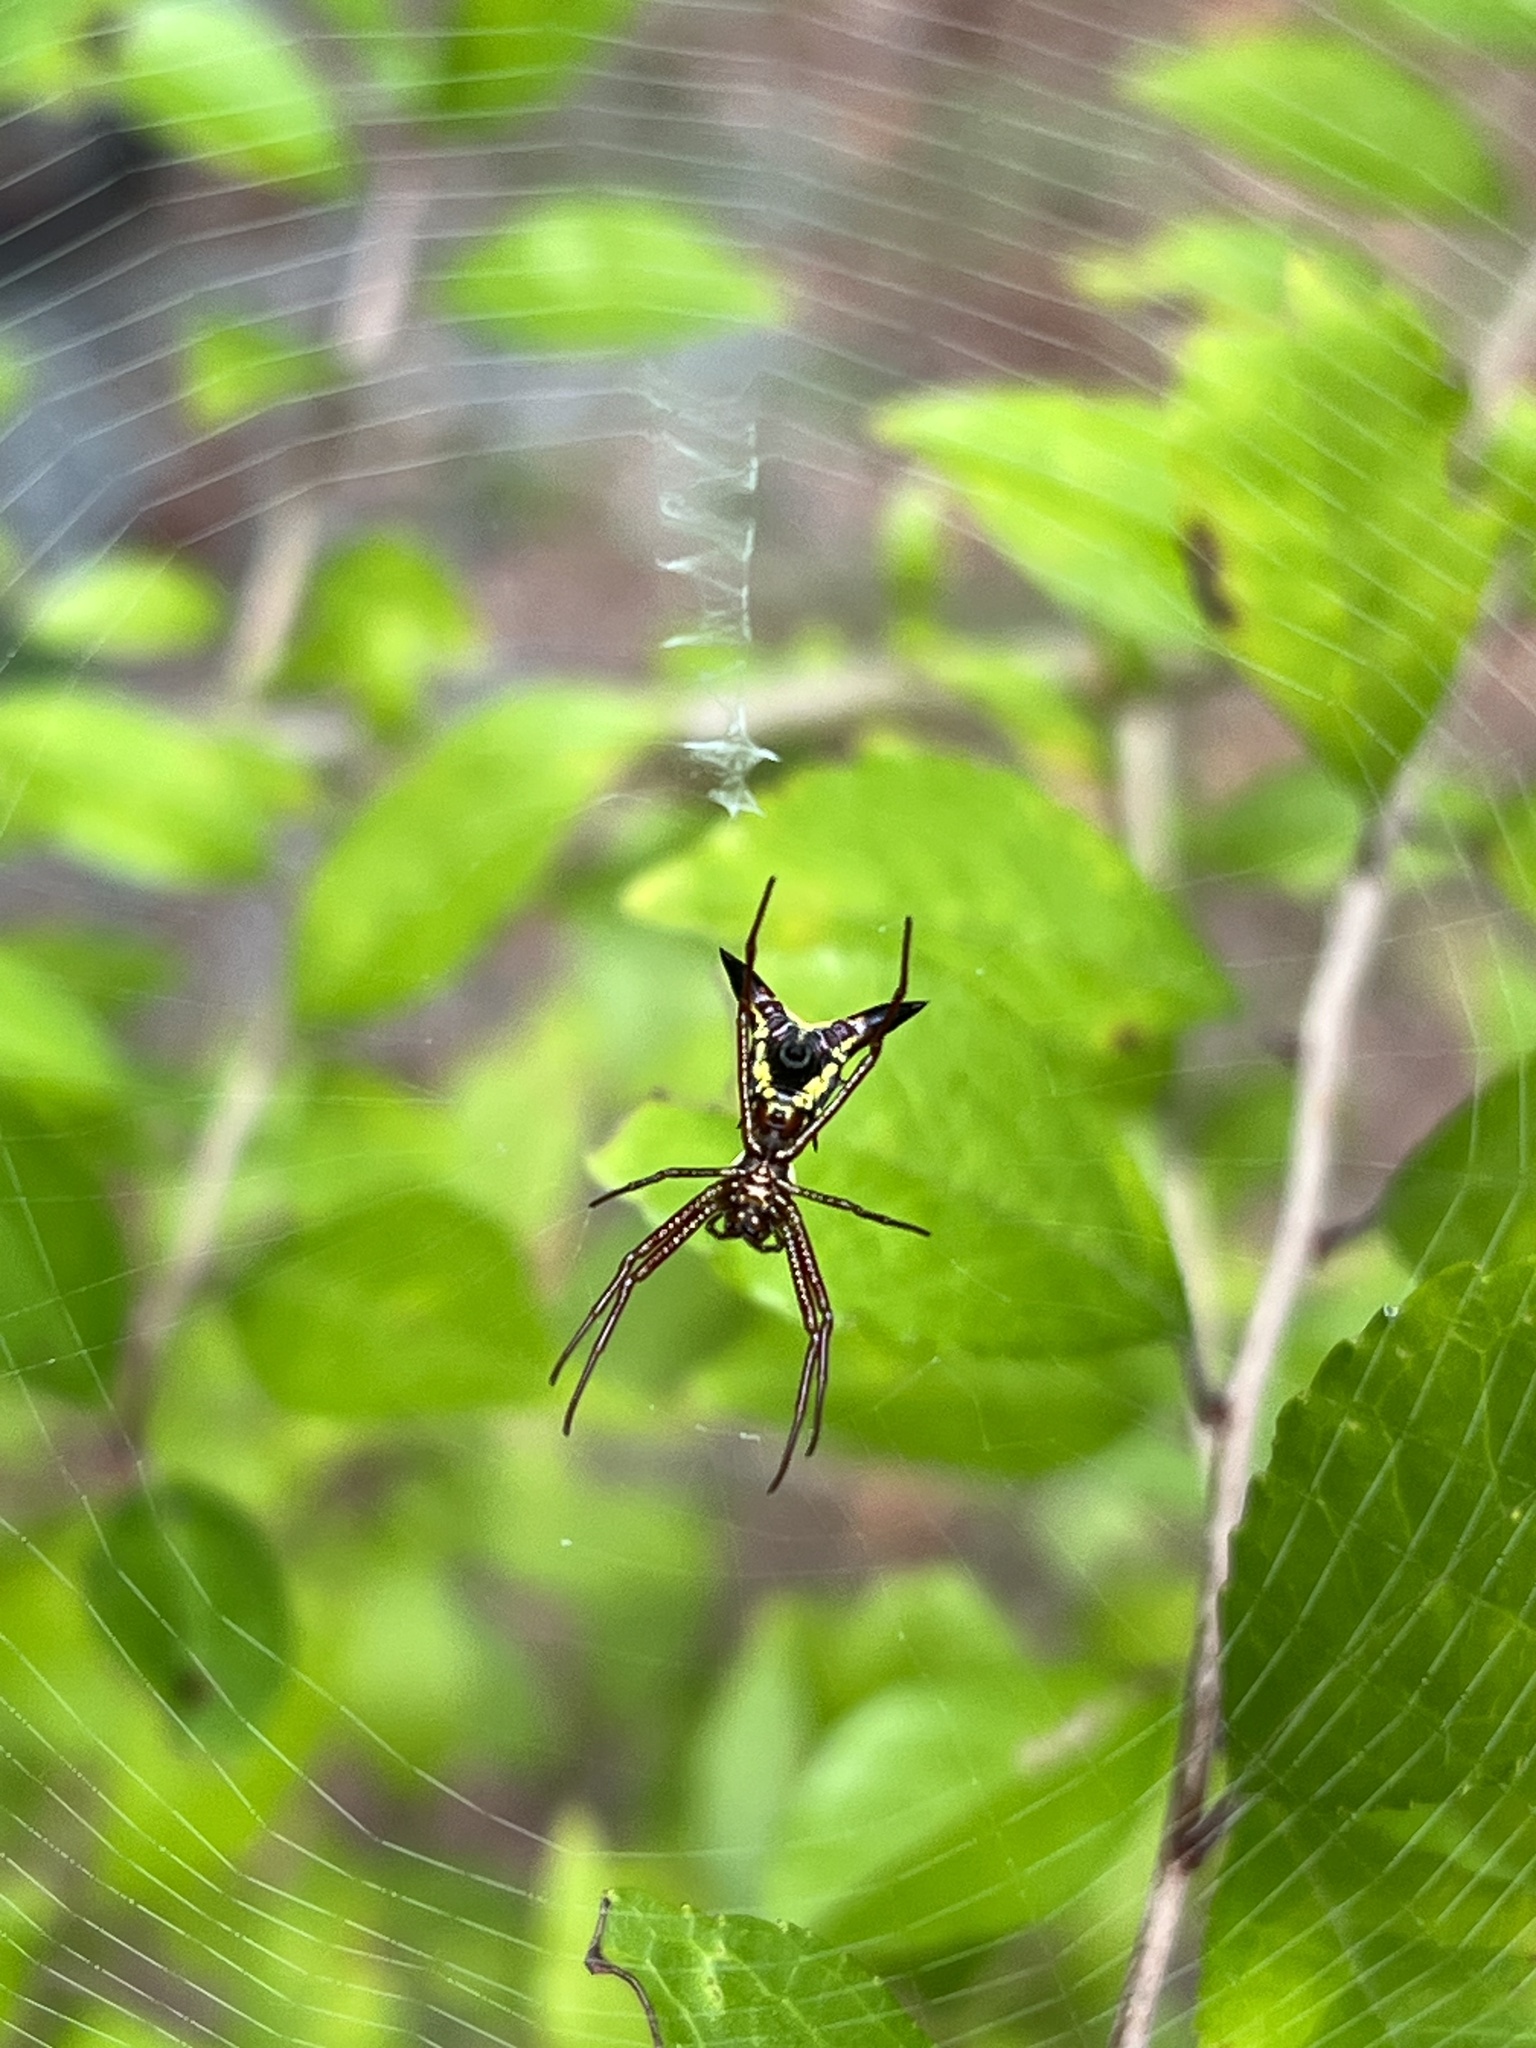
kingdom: Animalia
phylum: Arthropoda
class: Arachnida
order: Araneae
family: Araneidae
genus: Micrathena
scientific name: Micrathena sagittata
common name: Orb weavers
